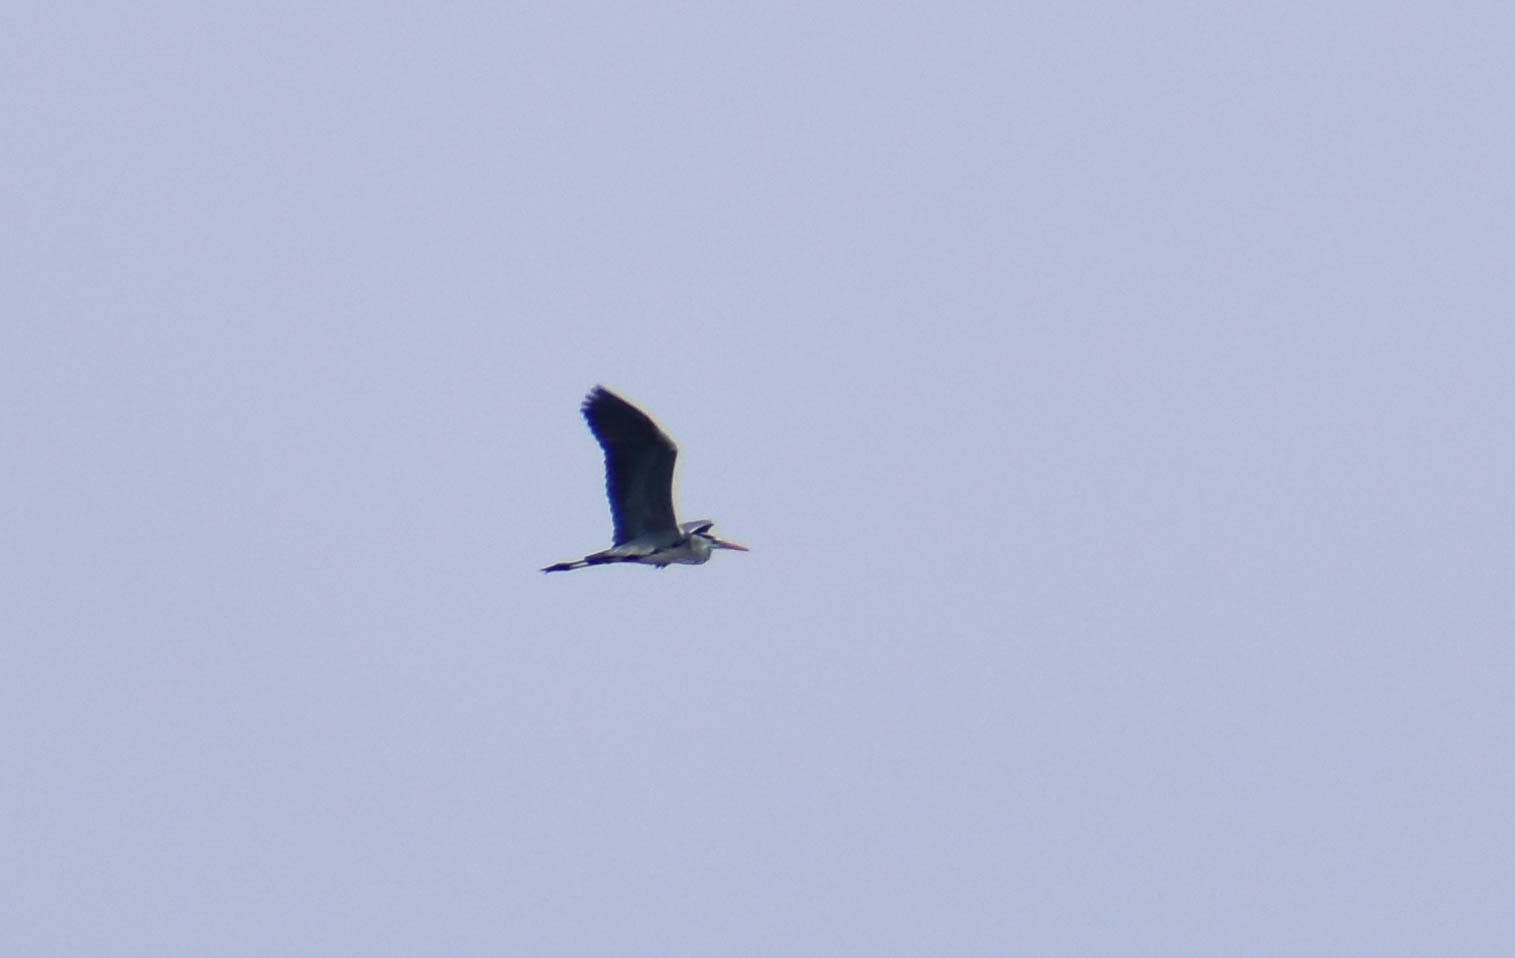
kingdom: Animalia
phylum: Chordata
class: Aves
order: Pelecaniformes
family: Ardeidae
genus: Ardea
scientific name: Ardea cinerea
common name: Grey heron
